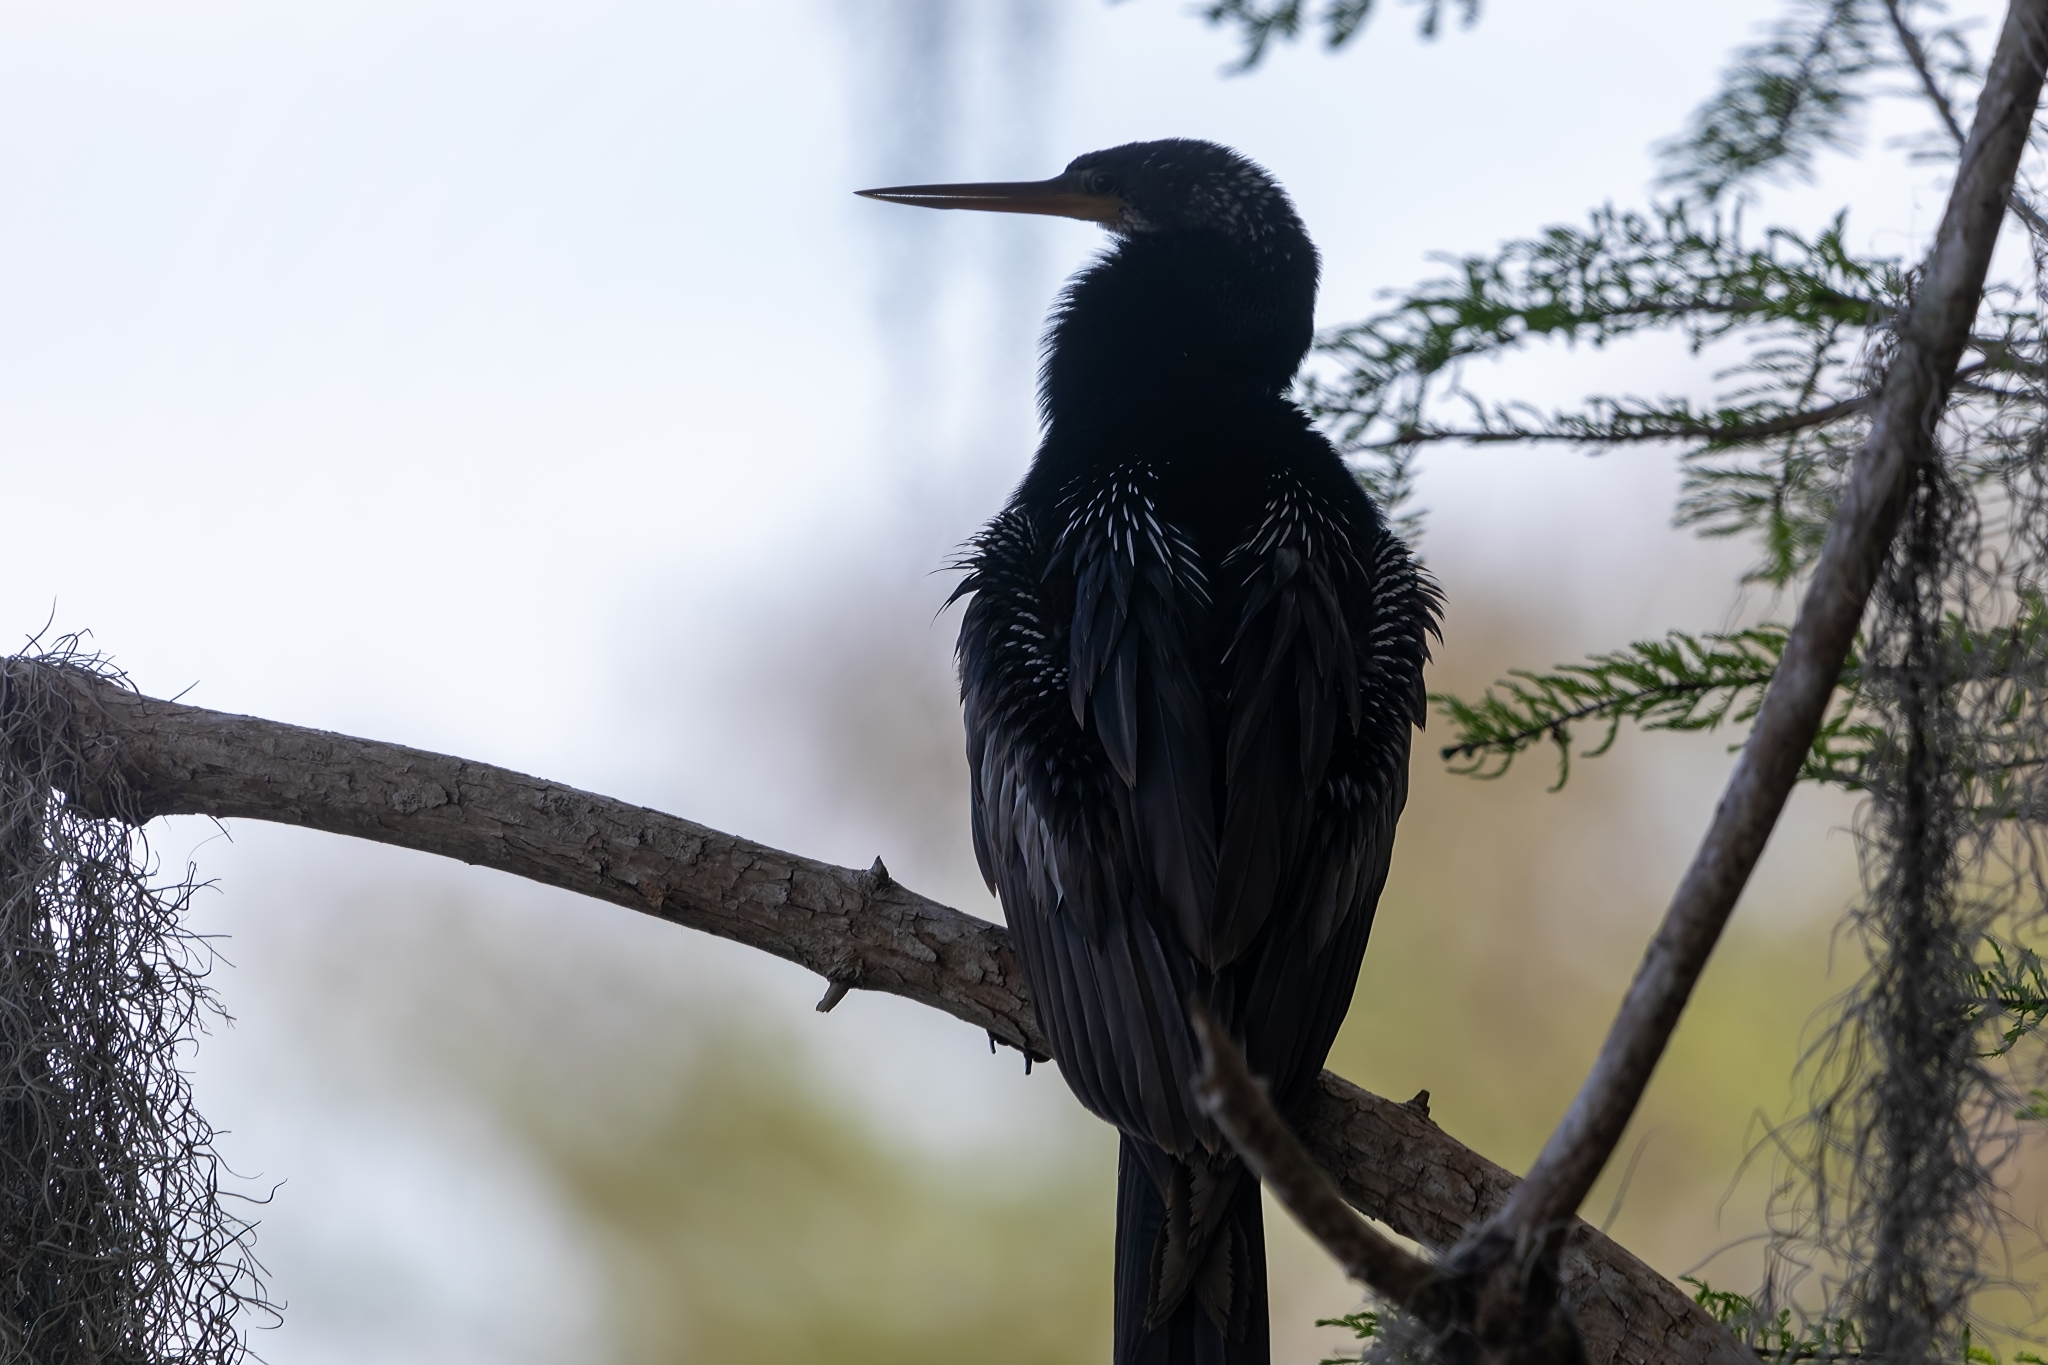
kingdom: Animalia
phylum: Chordata
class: Aves
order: Suliformes
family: Anhingidae
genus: Anhinga
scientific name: Anhinga anhinga
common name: Anhinga
